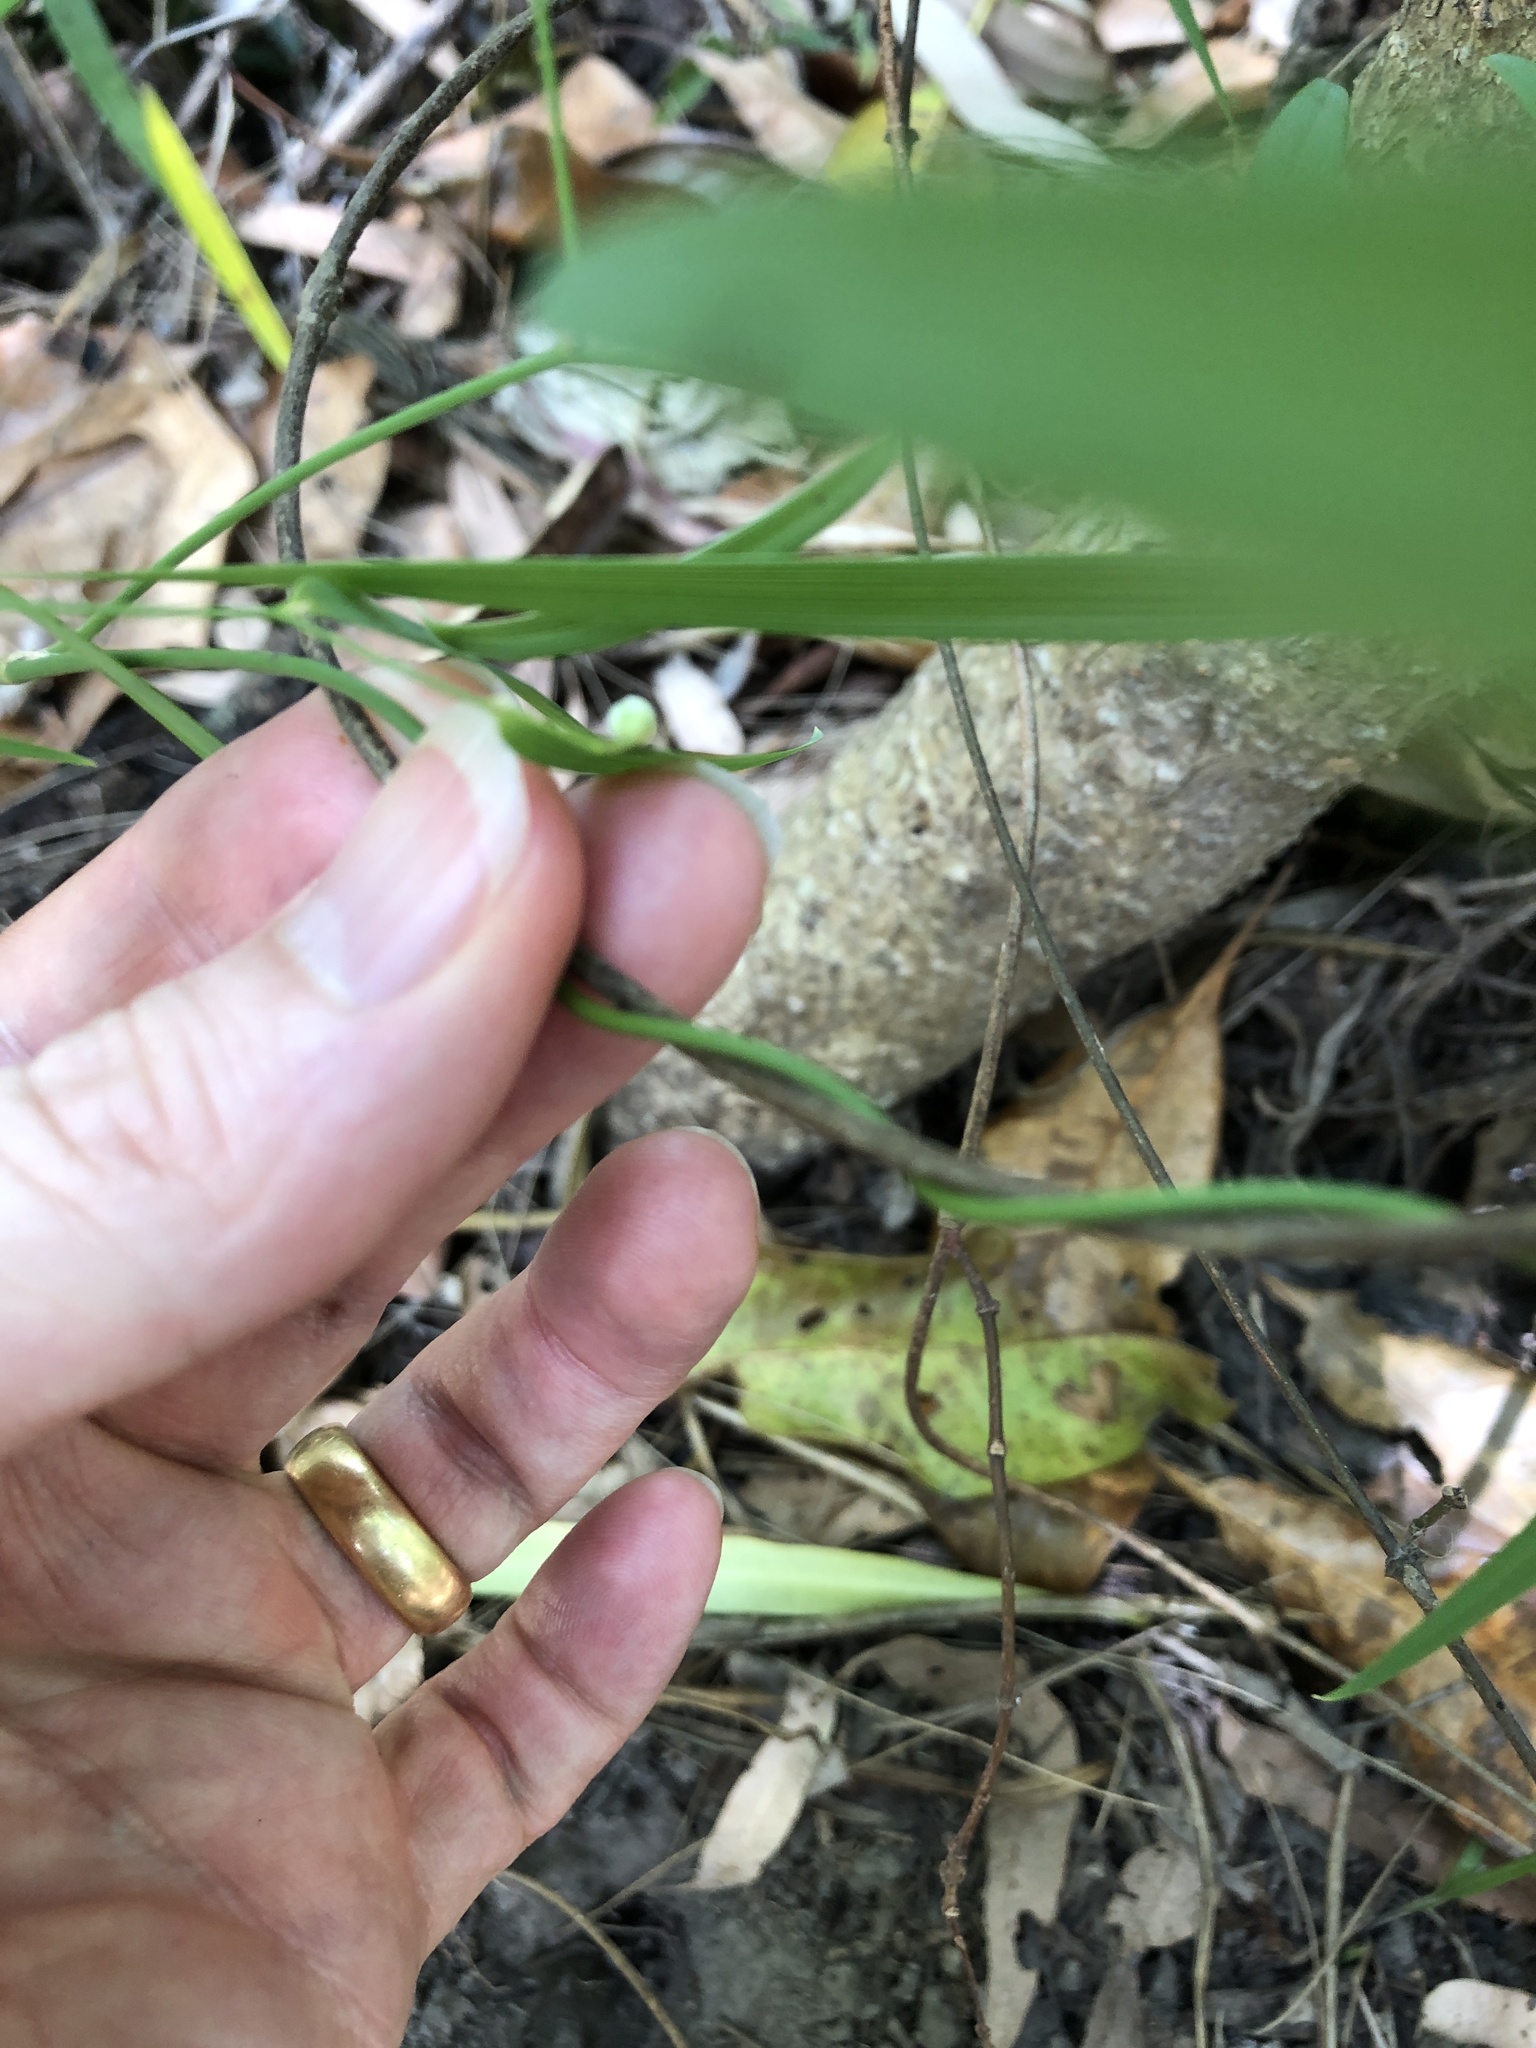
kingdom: Plantae
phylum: Tracheophyta
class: Liliopsida
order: Asparagales
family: Asparagaceae
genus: Eustrephus
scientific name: Eustrephus latifolius
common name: Orangevine
